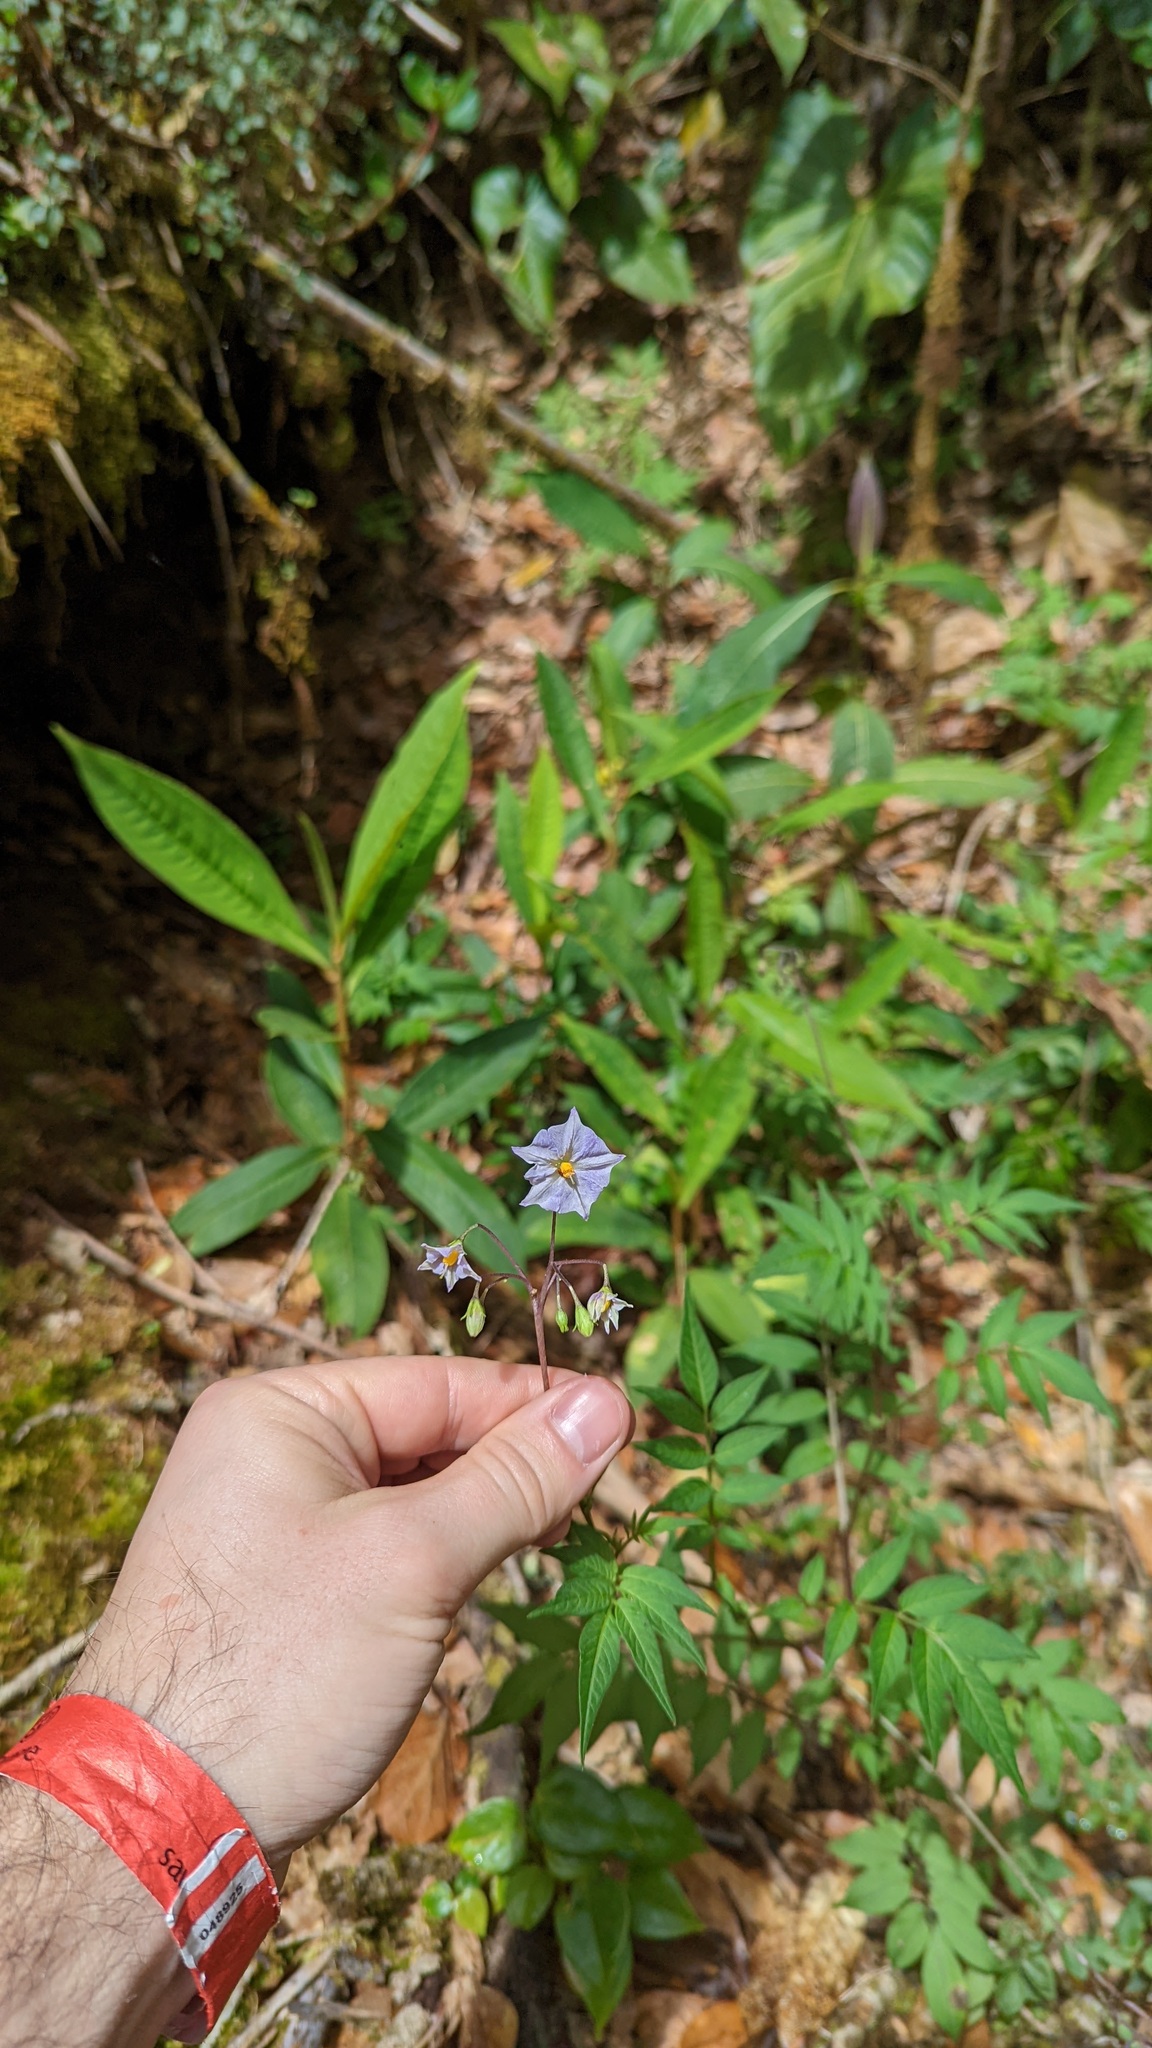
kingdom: Plantae
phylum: Tracheophyta
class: Magnoliopsida
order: Solanales
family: Solanaceae
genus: Solanum
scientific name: Solanum longiconicum
